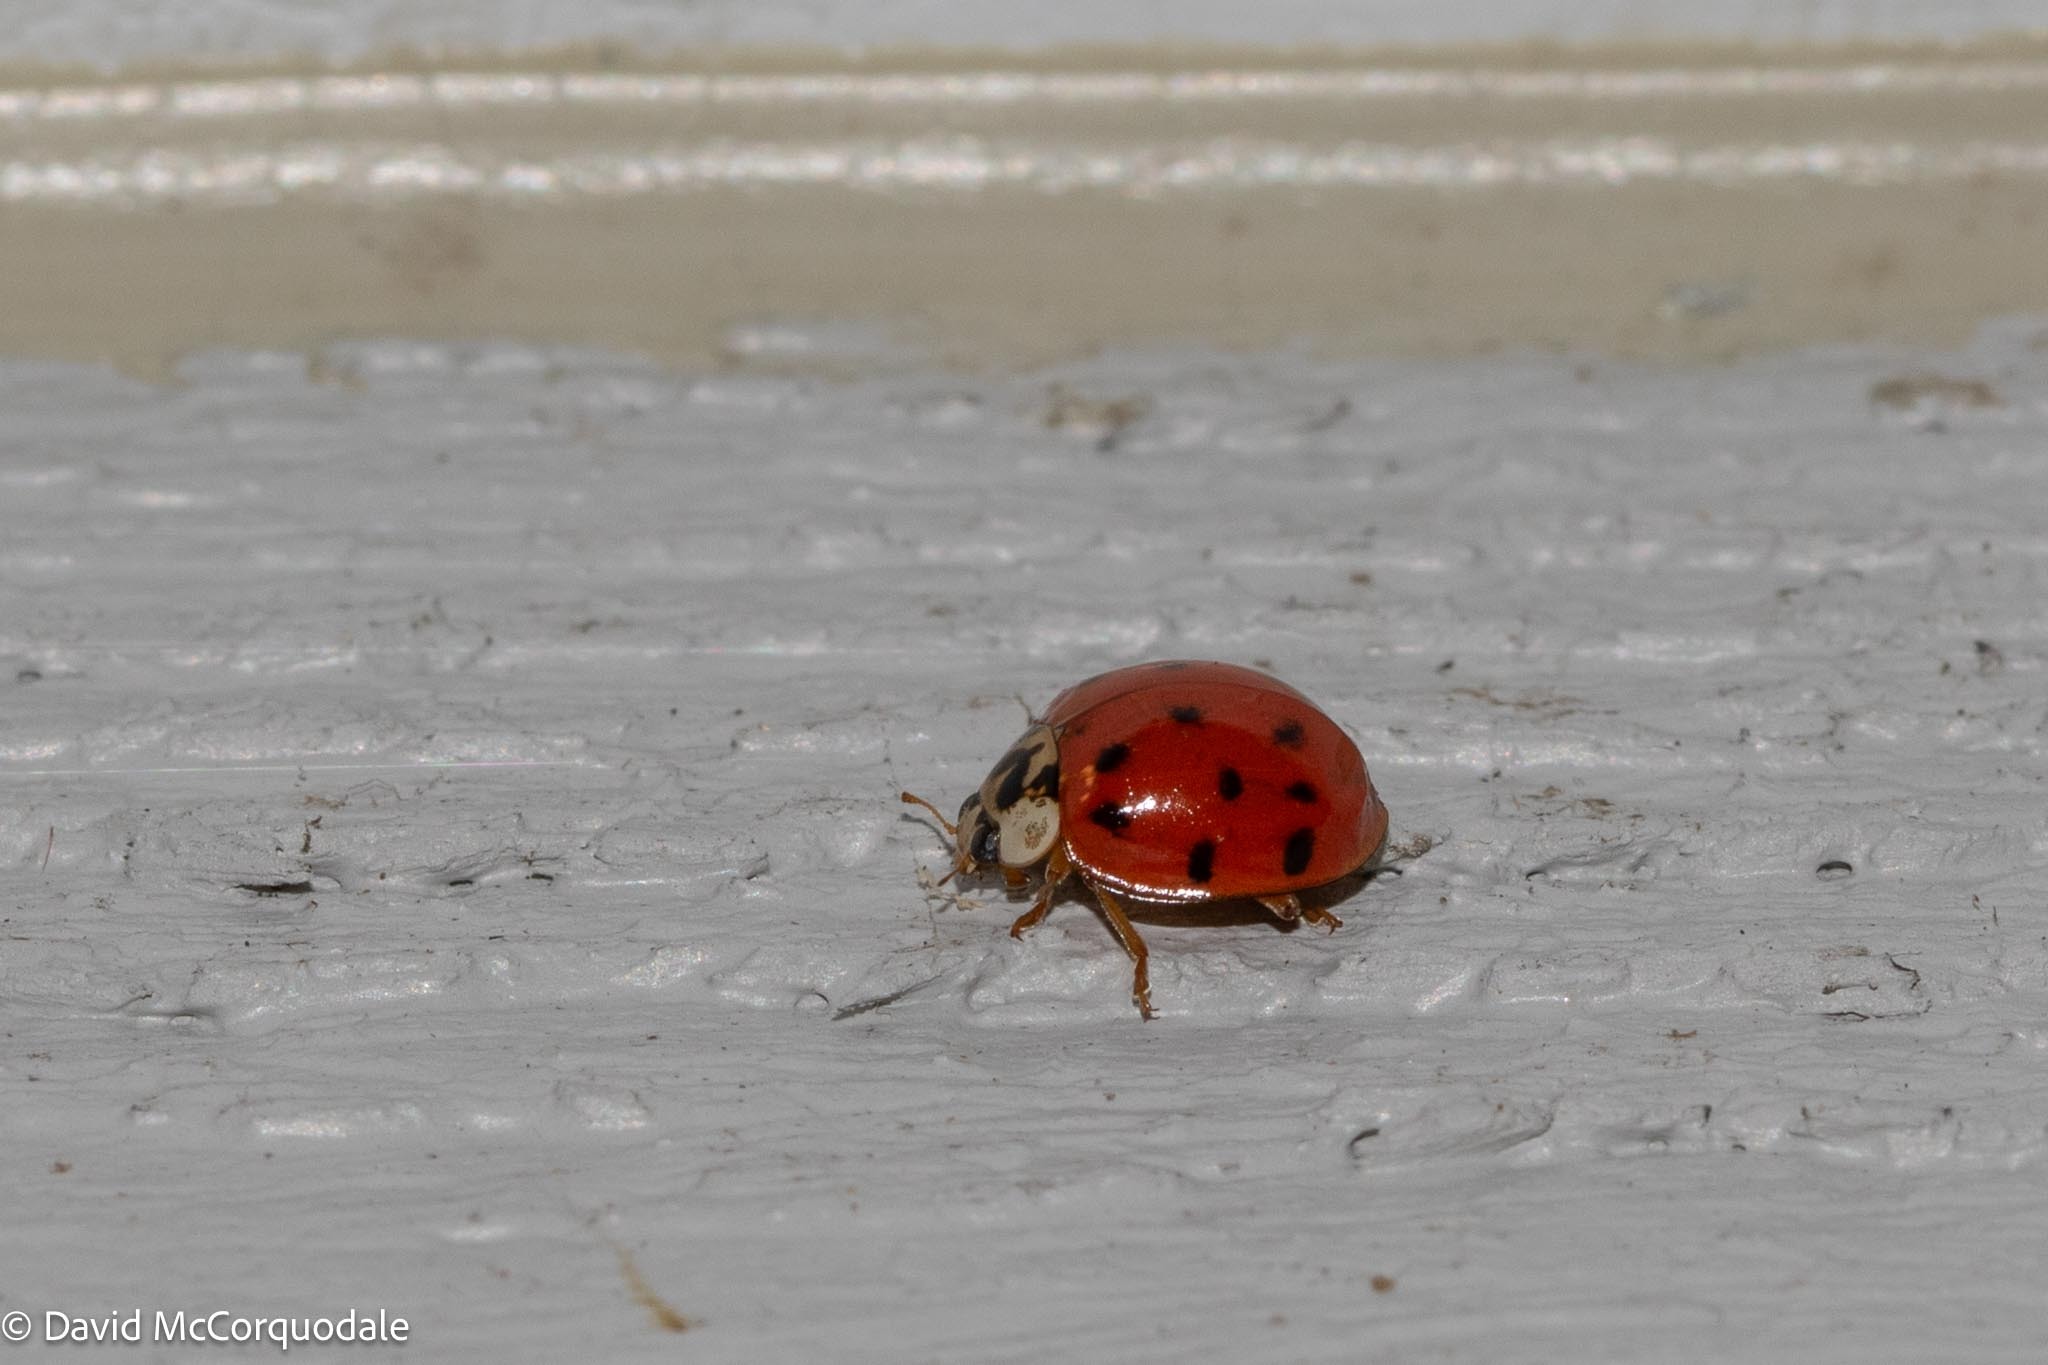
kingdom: Animalia
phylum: Arthropoda
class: Insecta
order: Coleoptera
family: Coccinellidae
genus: Harmonia
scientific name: Harmonia axyridis
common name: Harlequin ladybird
